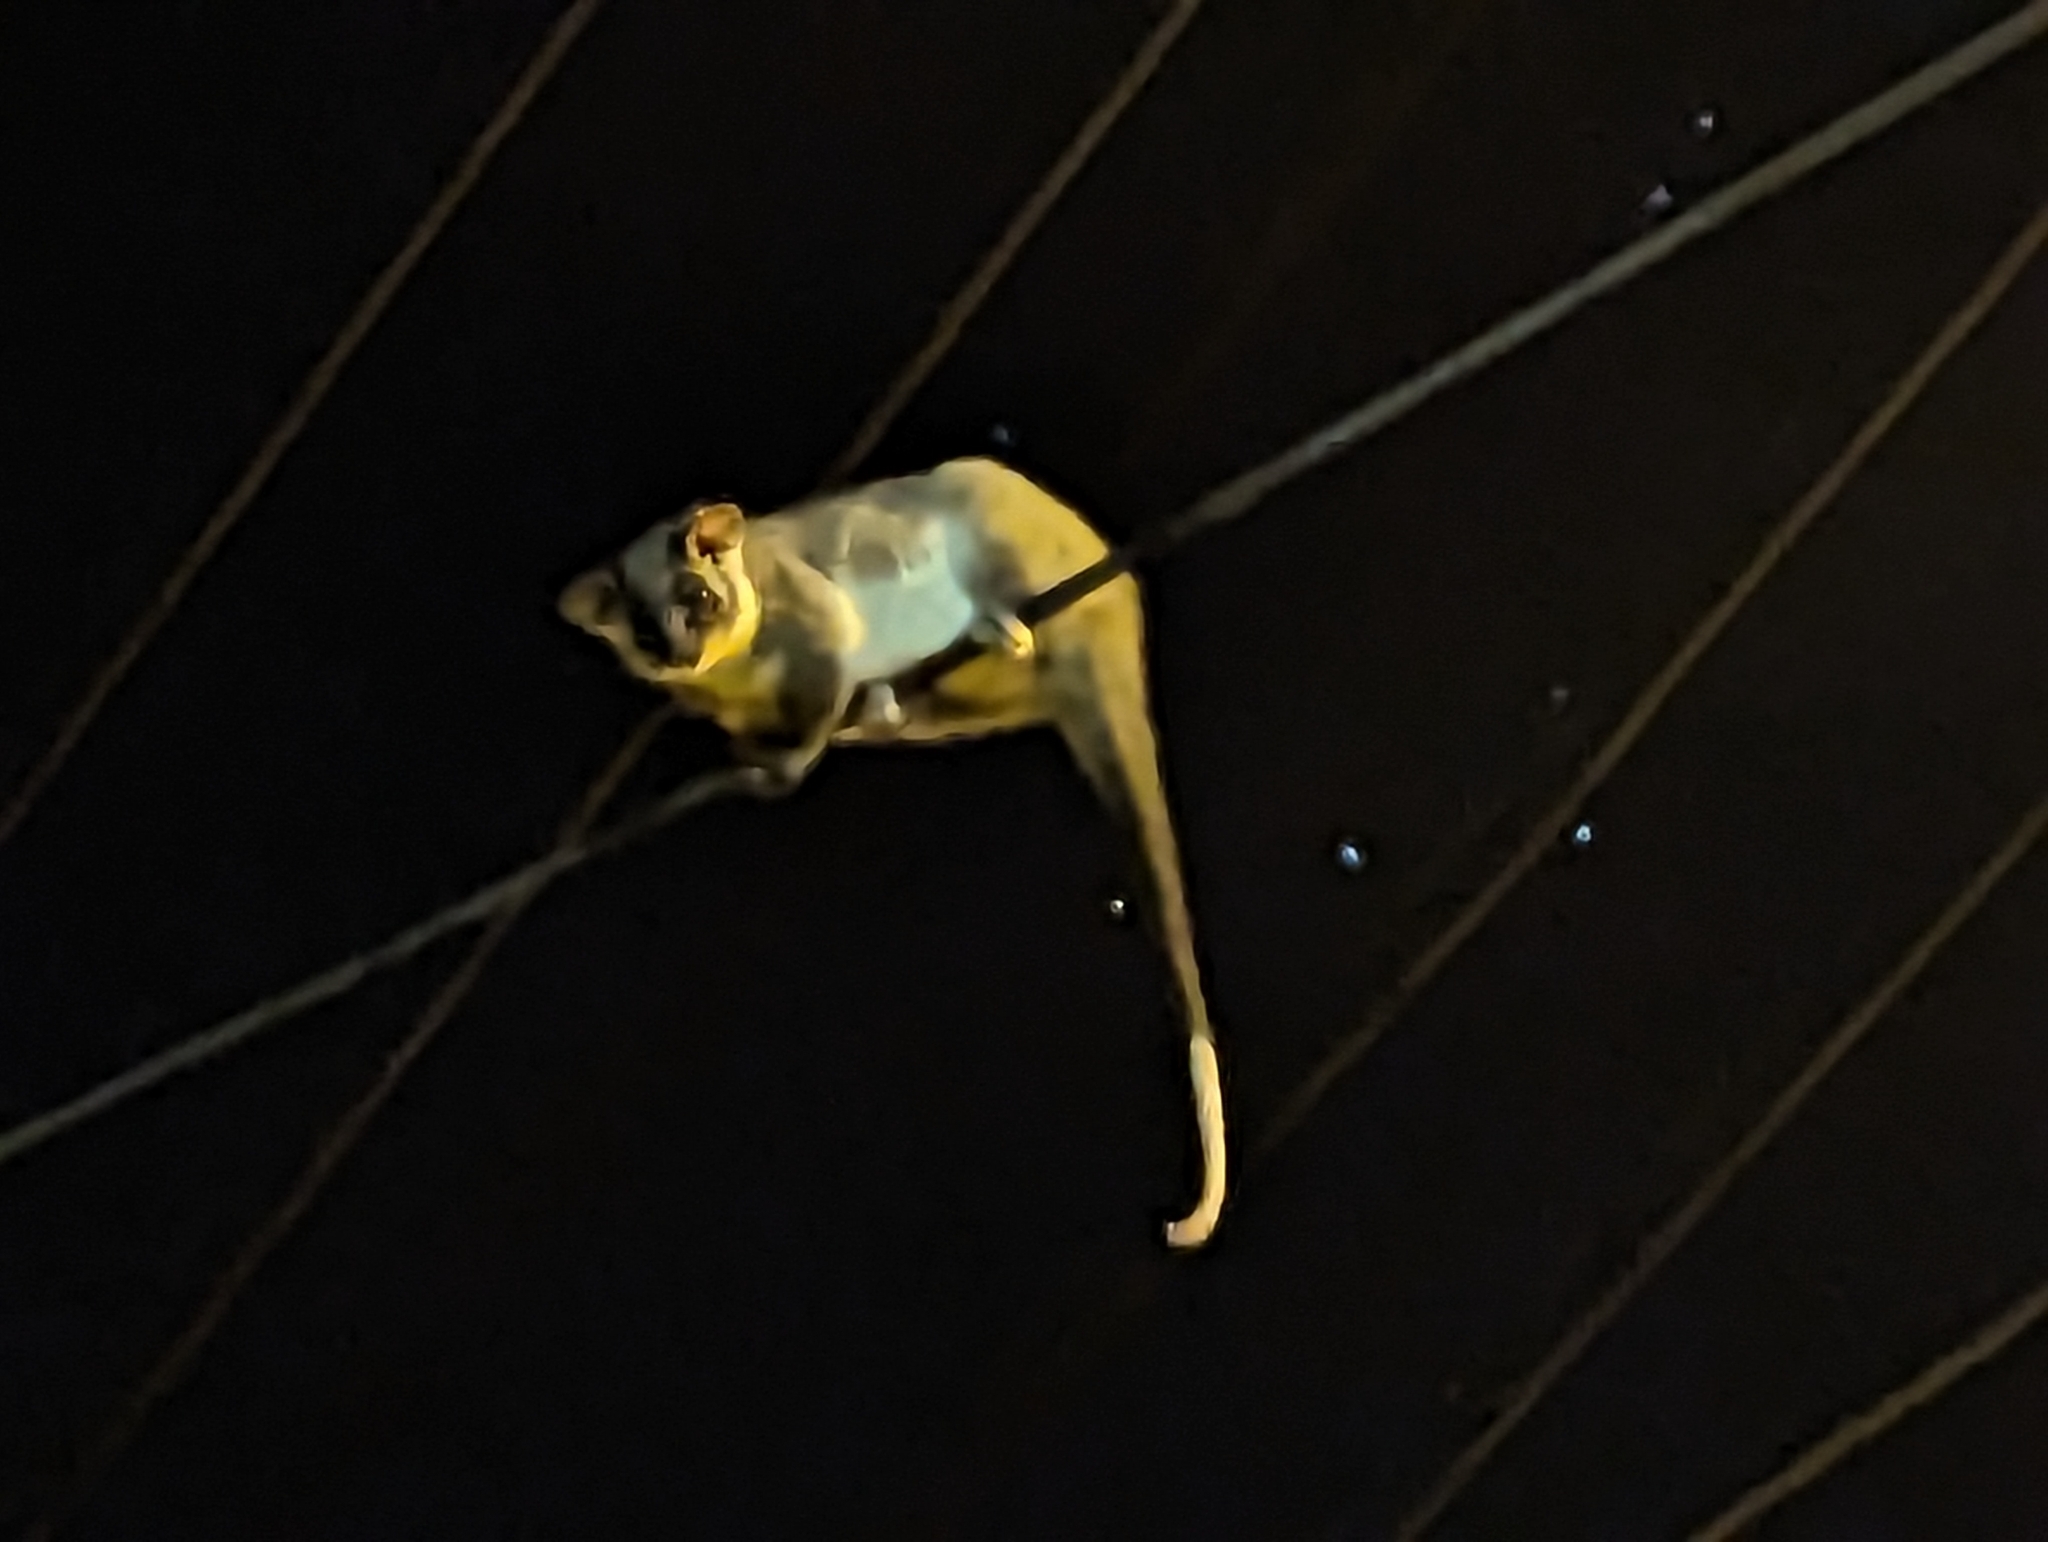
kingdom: Animalia
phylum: Chordata
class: Mammalia
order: Diprotodontia
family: Pseudocheiridae
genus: Pseudocheirus
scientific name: Pseudocheirus peregrinus
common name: Common ringtail possum
